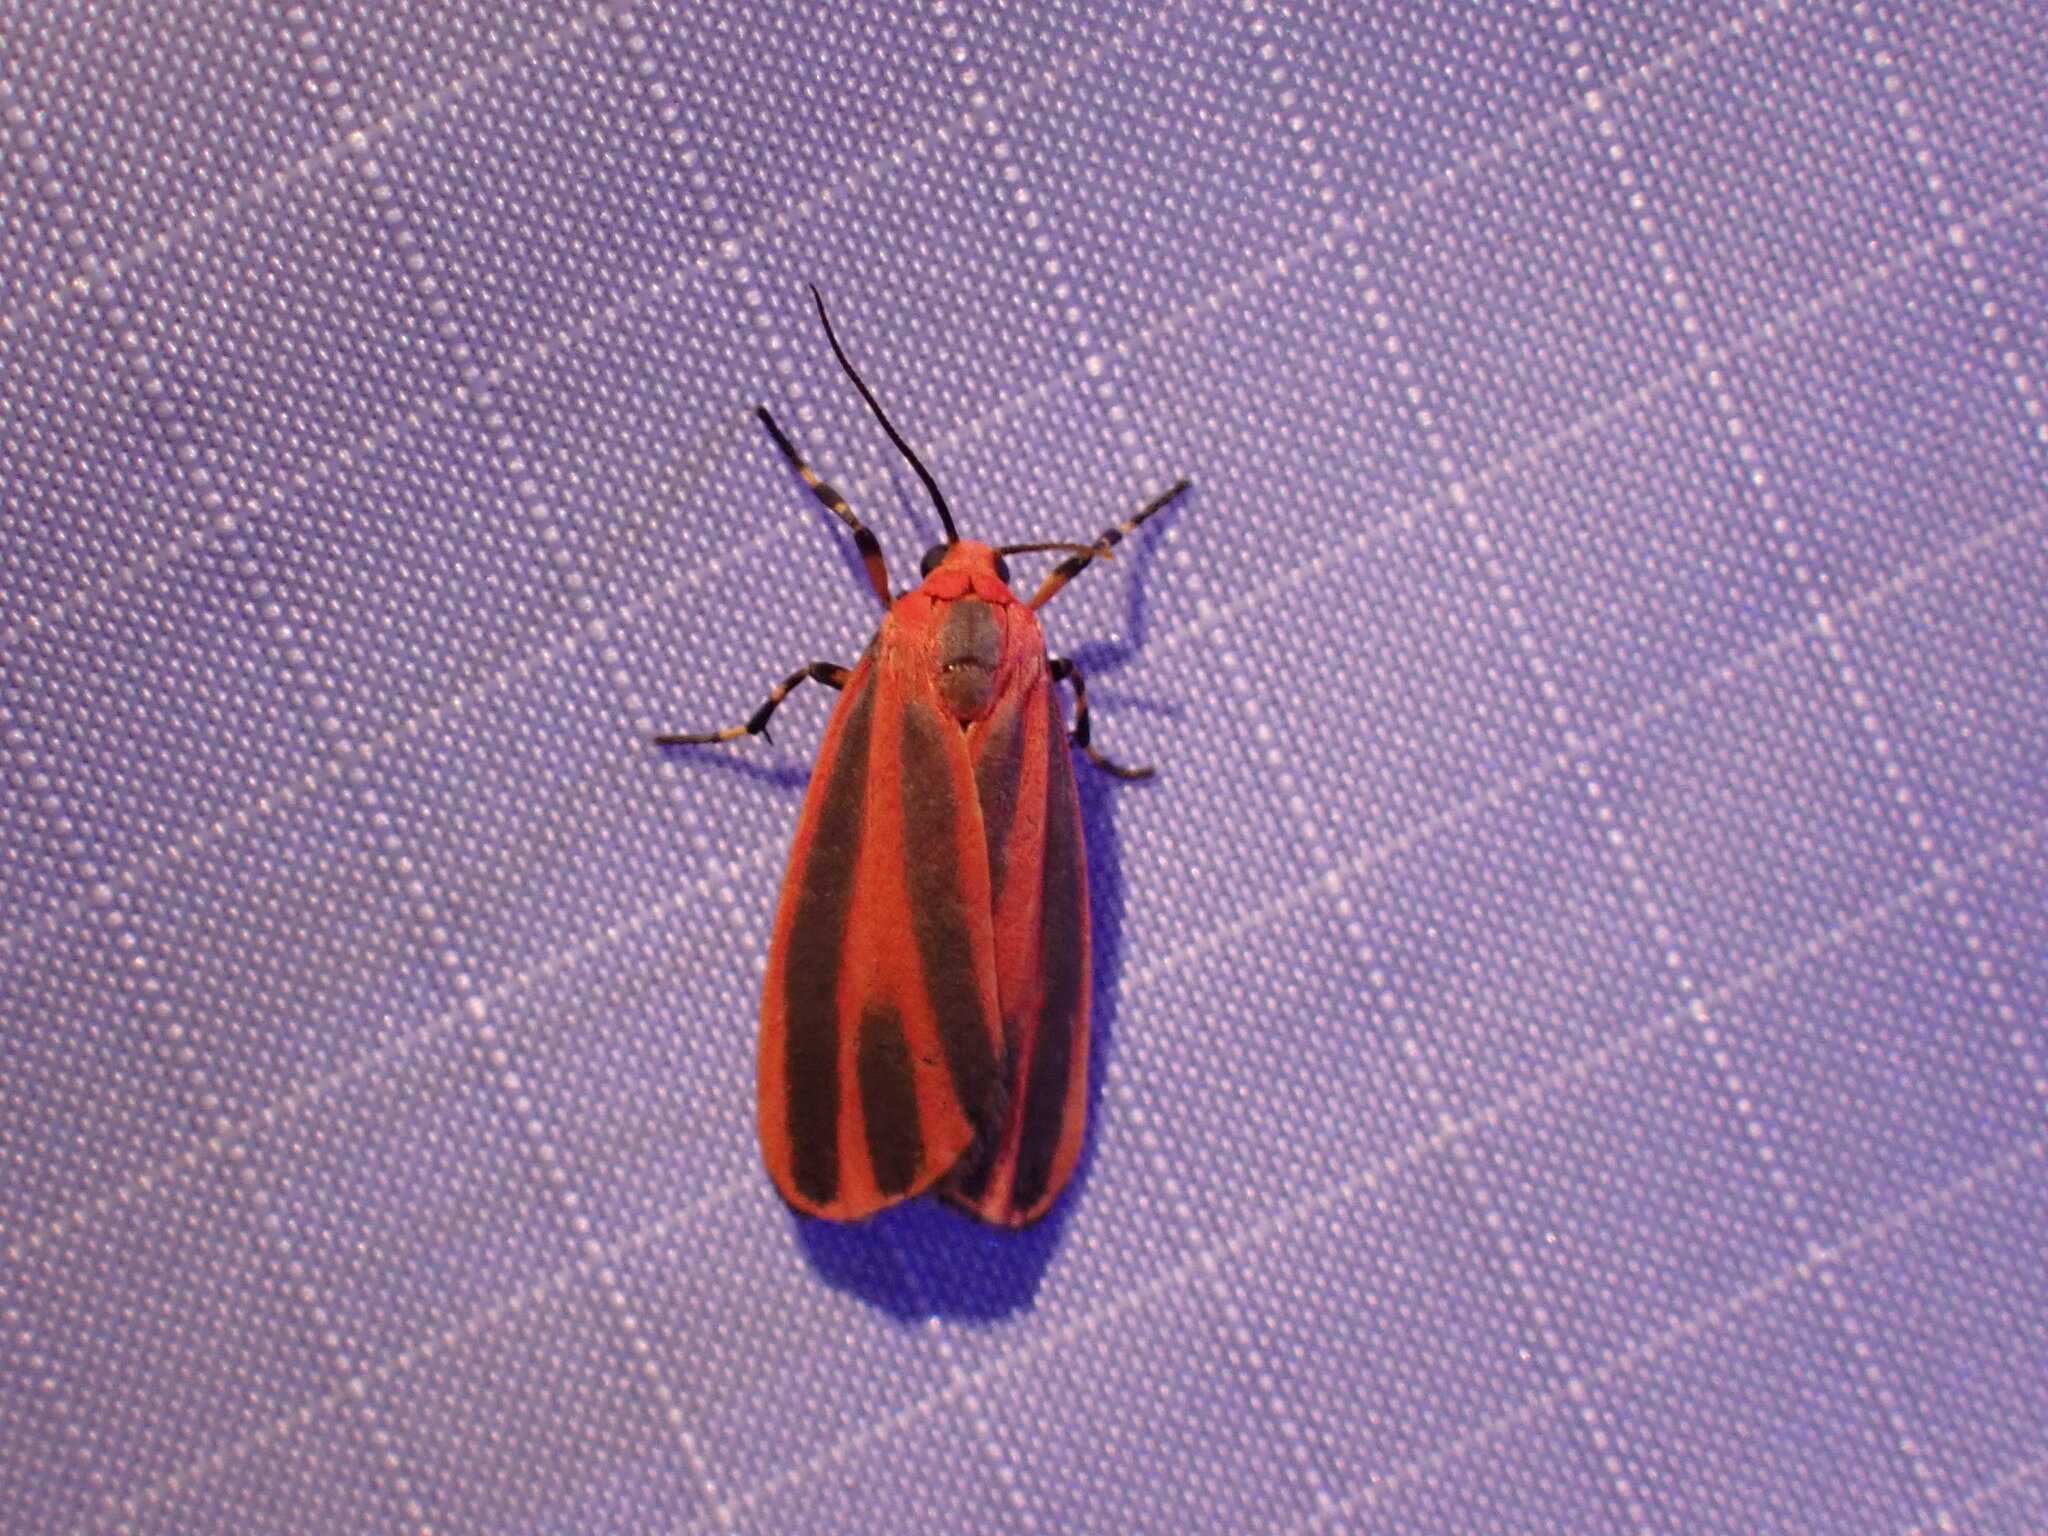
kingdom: Animalia
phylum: Arthropoda
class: Insecta
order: Lepidoptera
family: Erebidae
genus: Hypoprepia
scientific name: Hypoprepia miniata
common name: Scarlet-winged lichen moth
